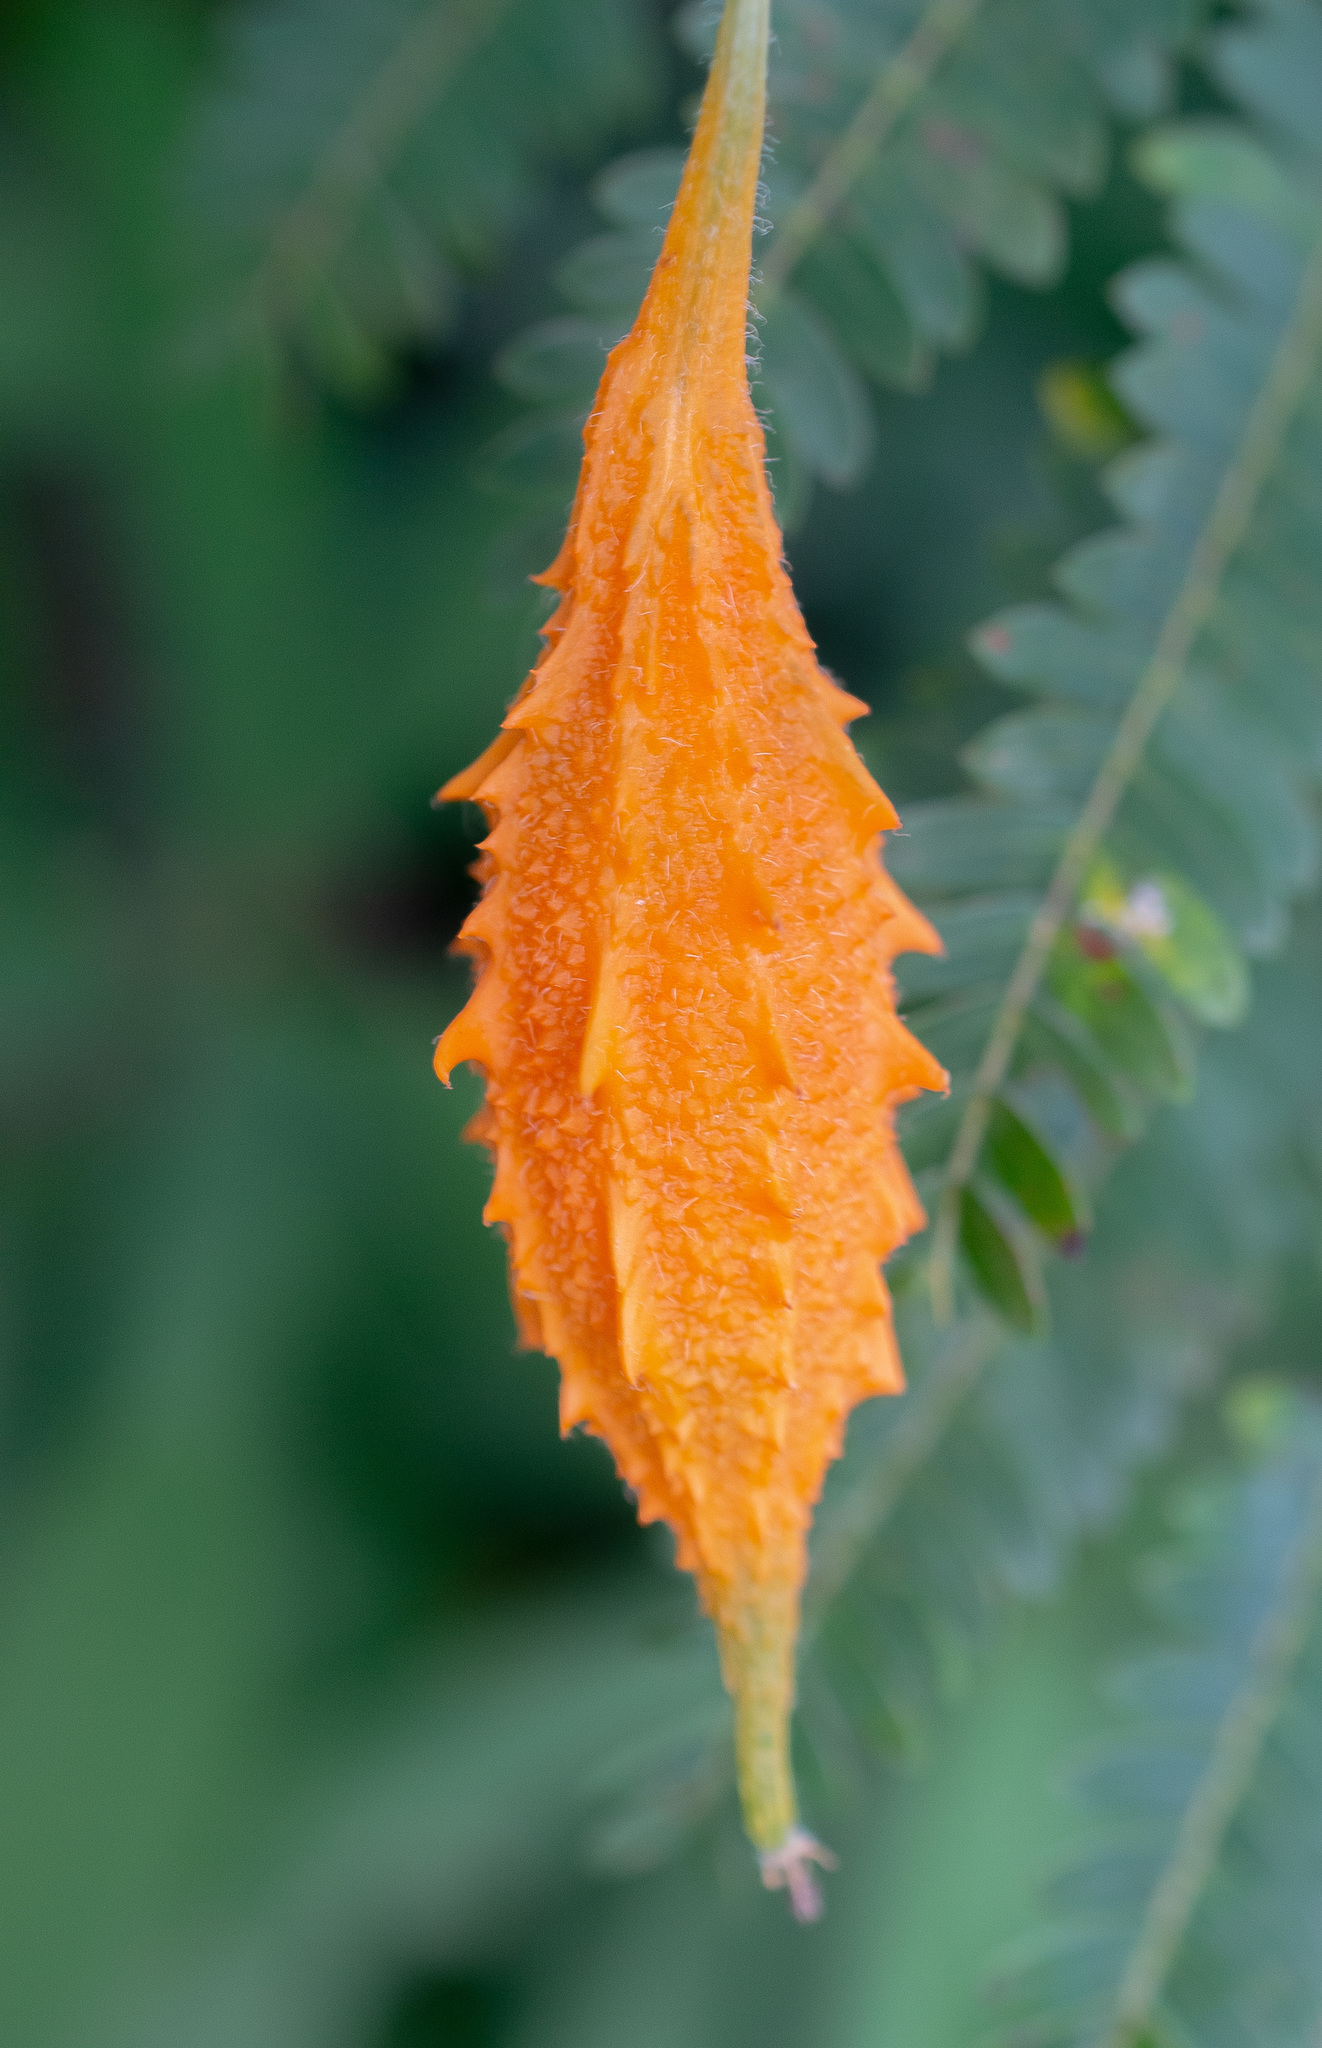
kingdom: Plantae
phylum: Tracheophyta
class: Magnoliopsida
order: Cucurbitales
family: Cucurbitaceae
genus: Momordica
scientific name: Momordica charantia
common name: Balsampear
